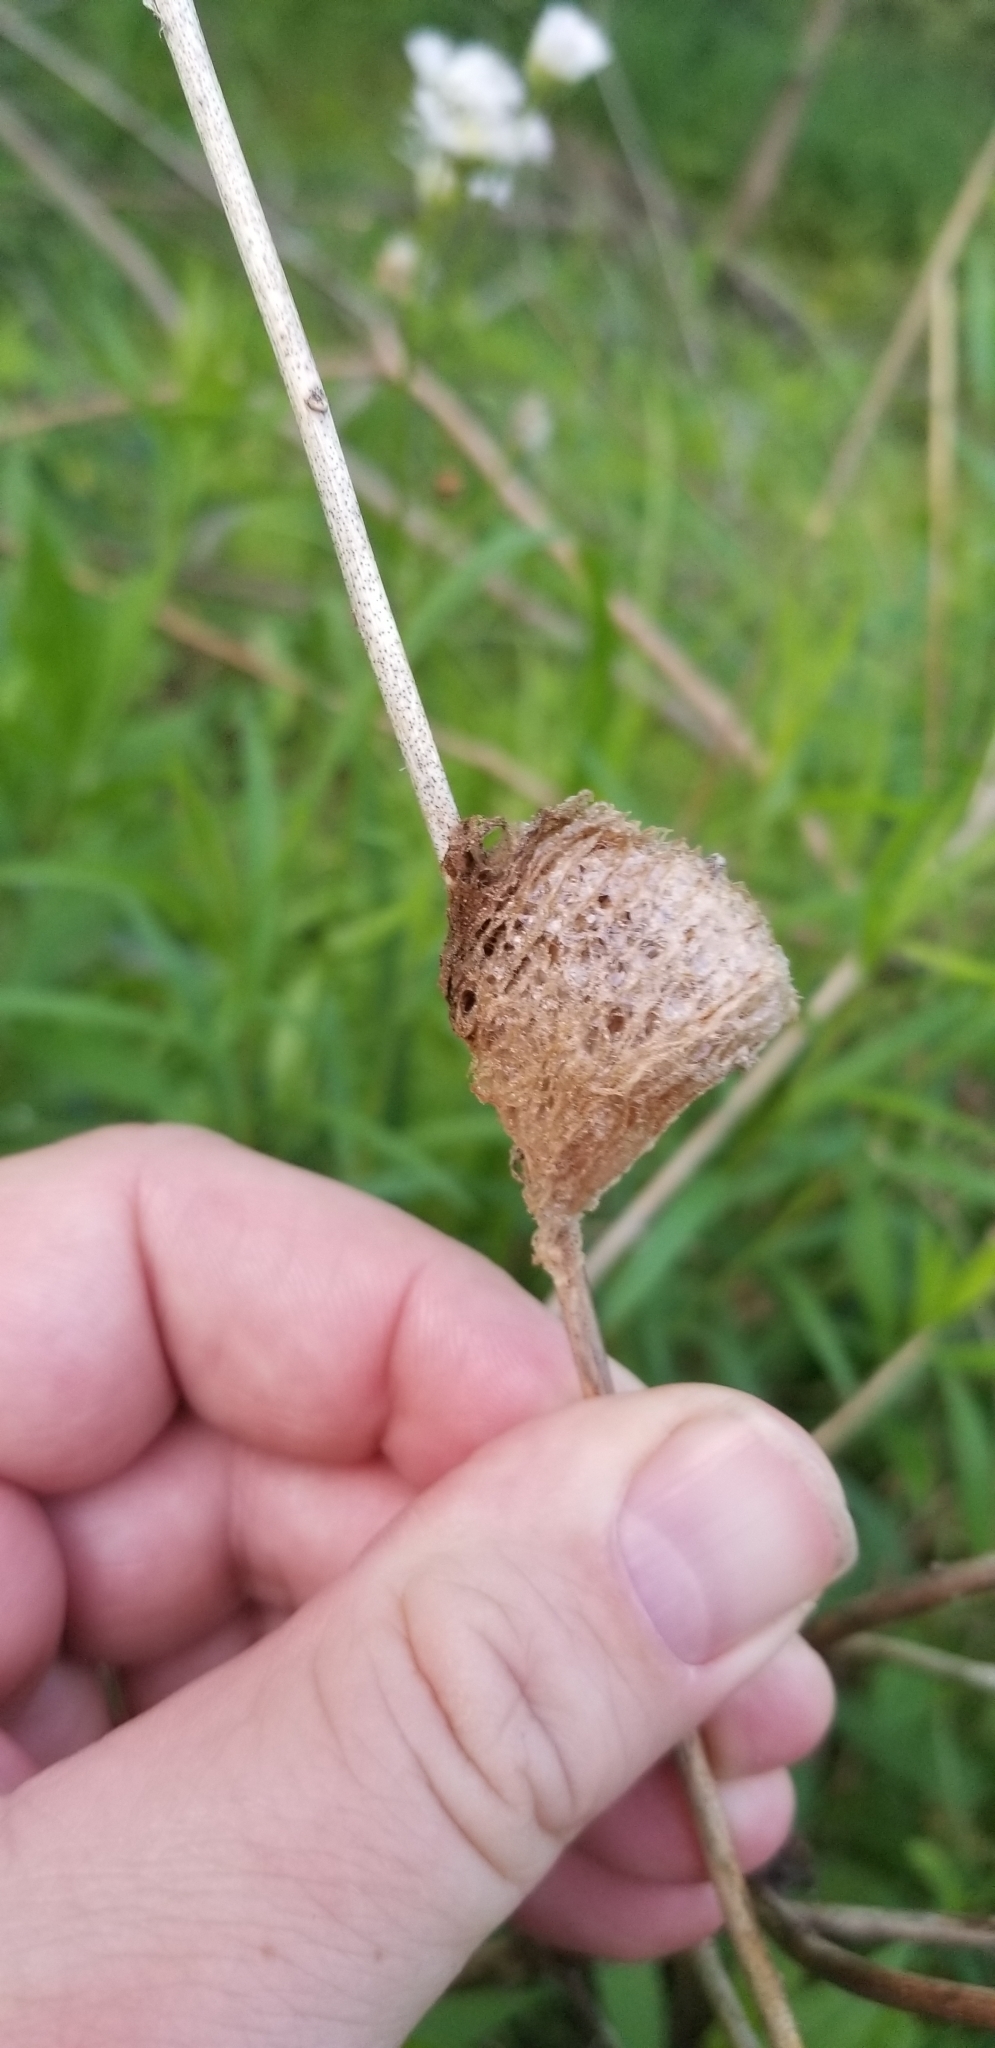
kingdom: Animalia
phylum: Arthropoda
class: Insecta
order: Mantodea
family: Mantidae
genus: Tenodera
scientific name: Tenodera sinensis
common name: Chinese mantis
